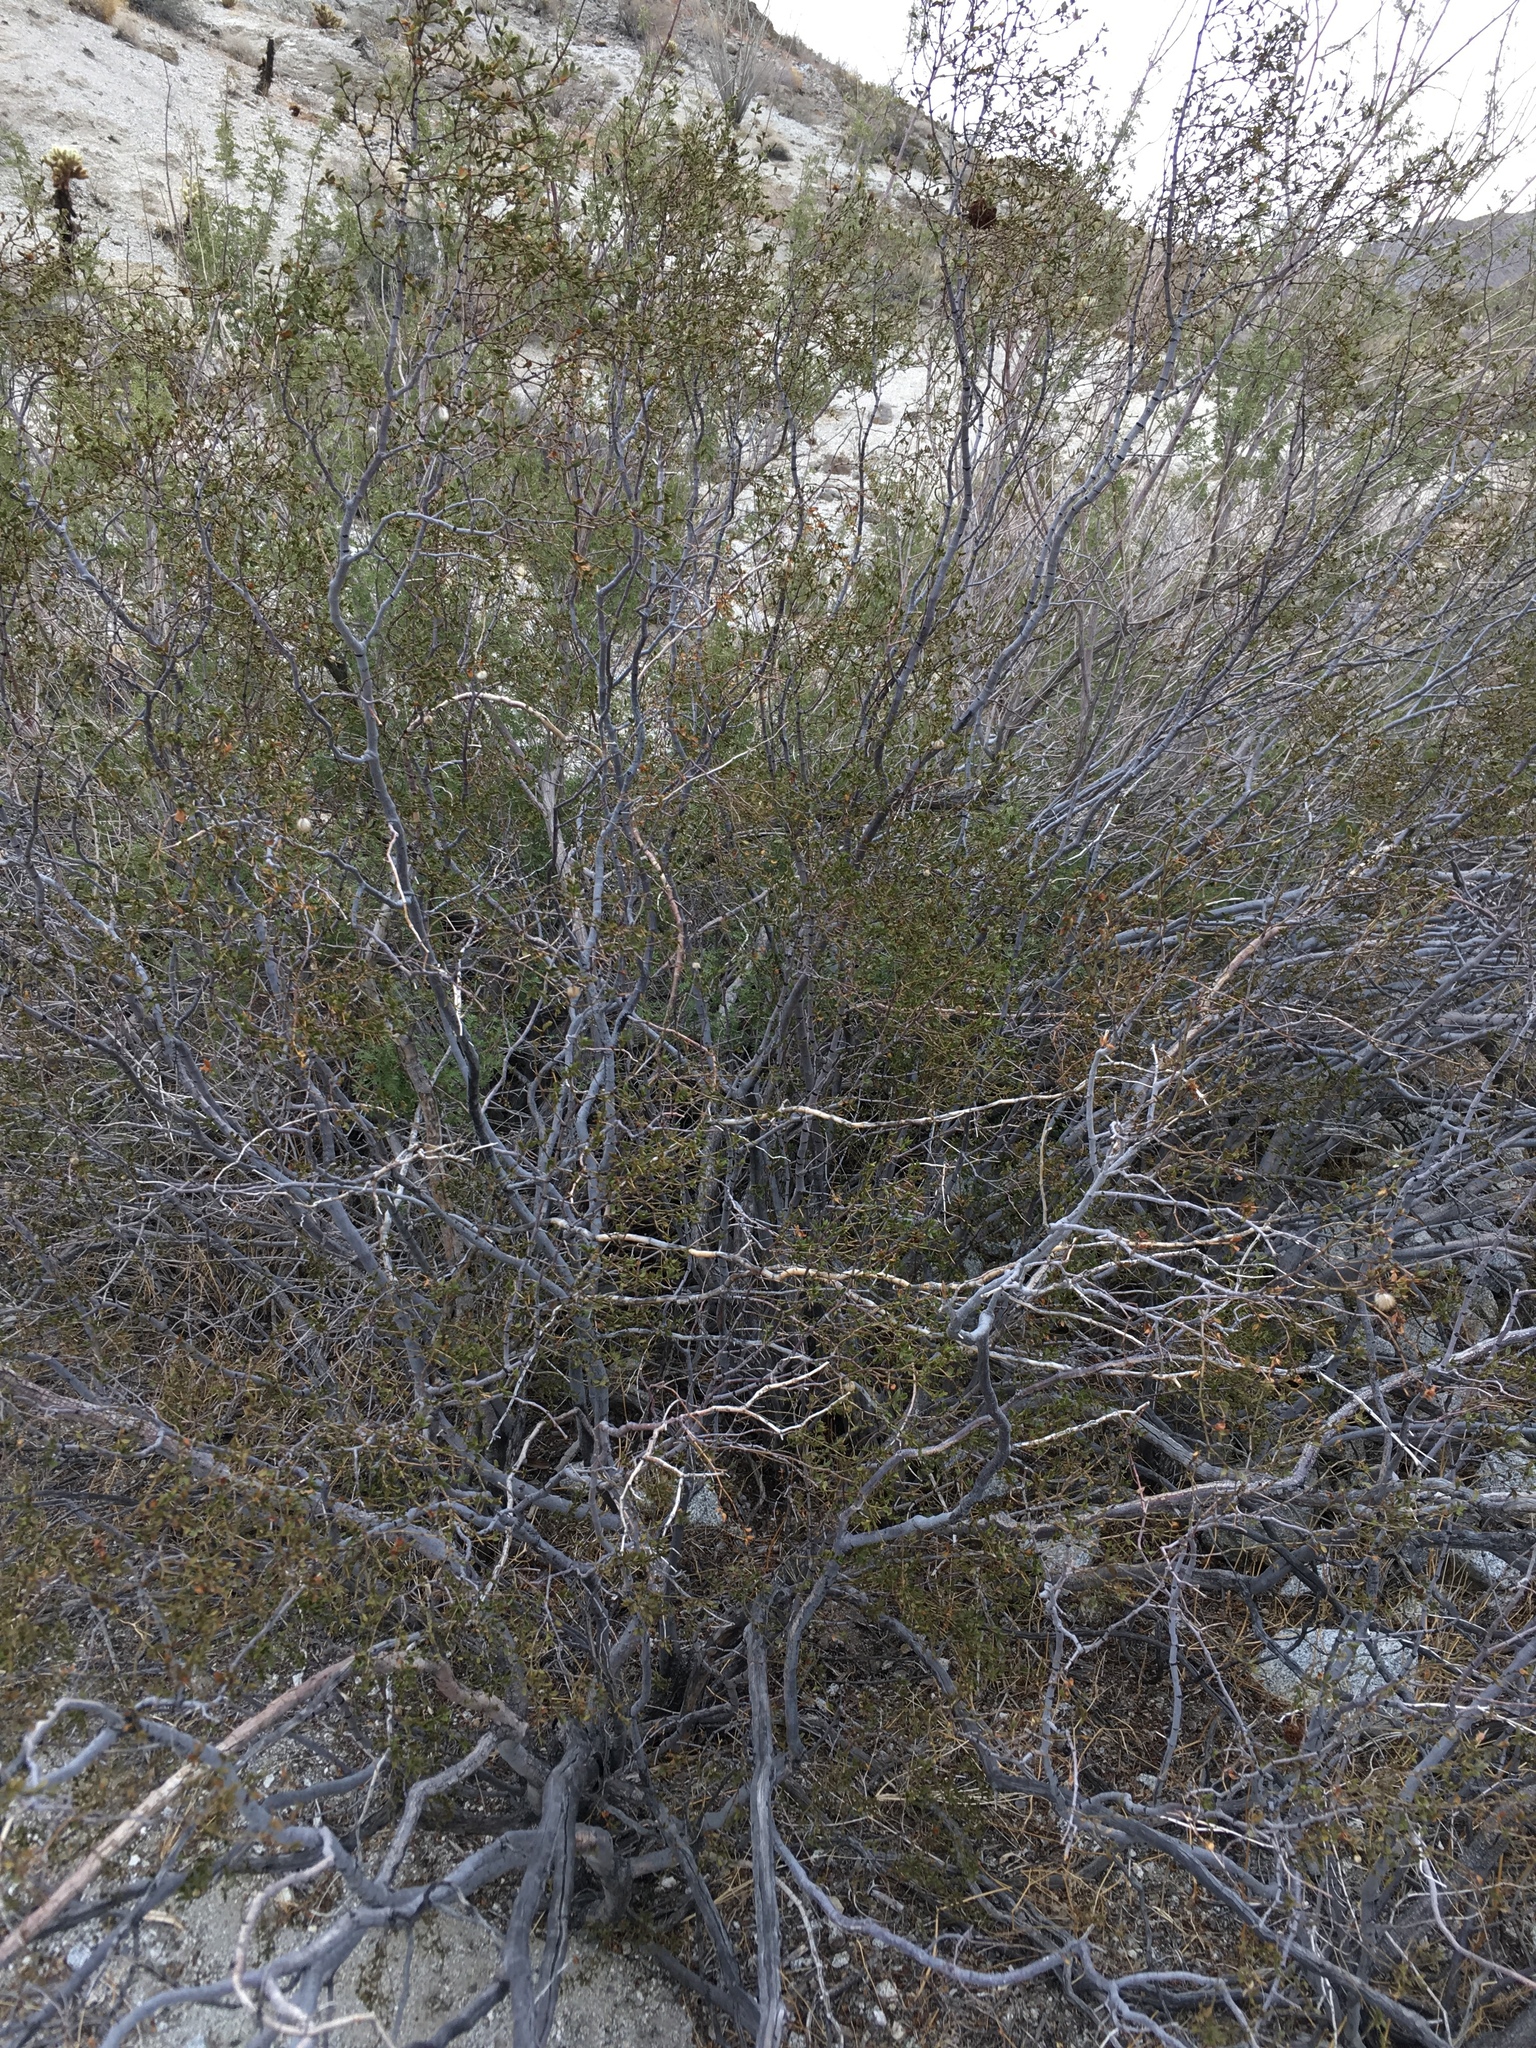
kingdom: Plantae
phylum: Tracheophyta
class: Magnoliopsida
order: Zygophyllales
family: Zygophyllaceae
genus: Larrea
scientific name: Larrea tridentata
